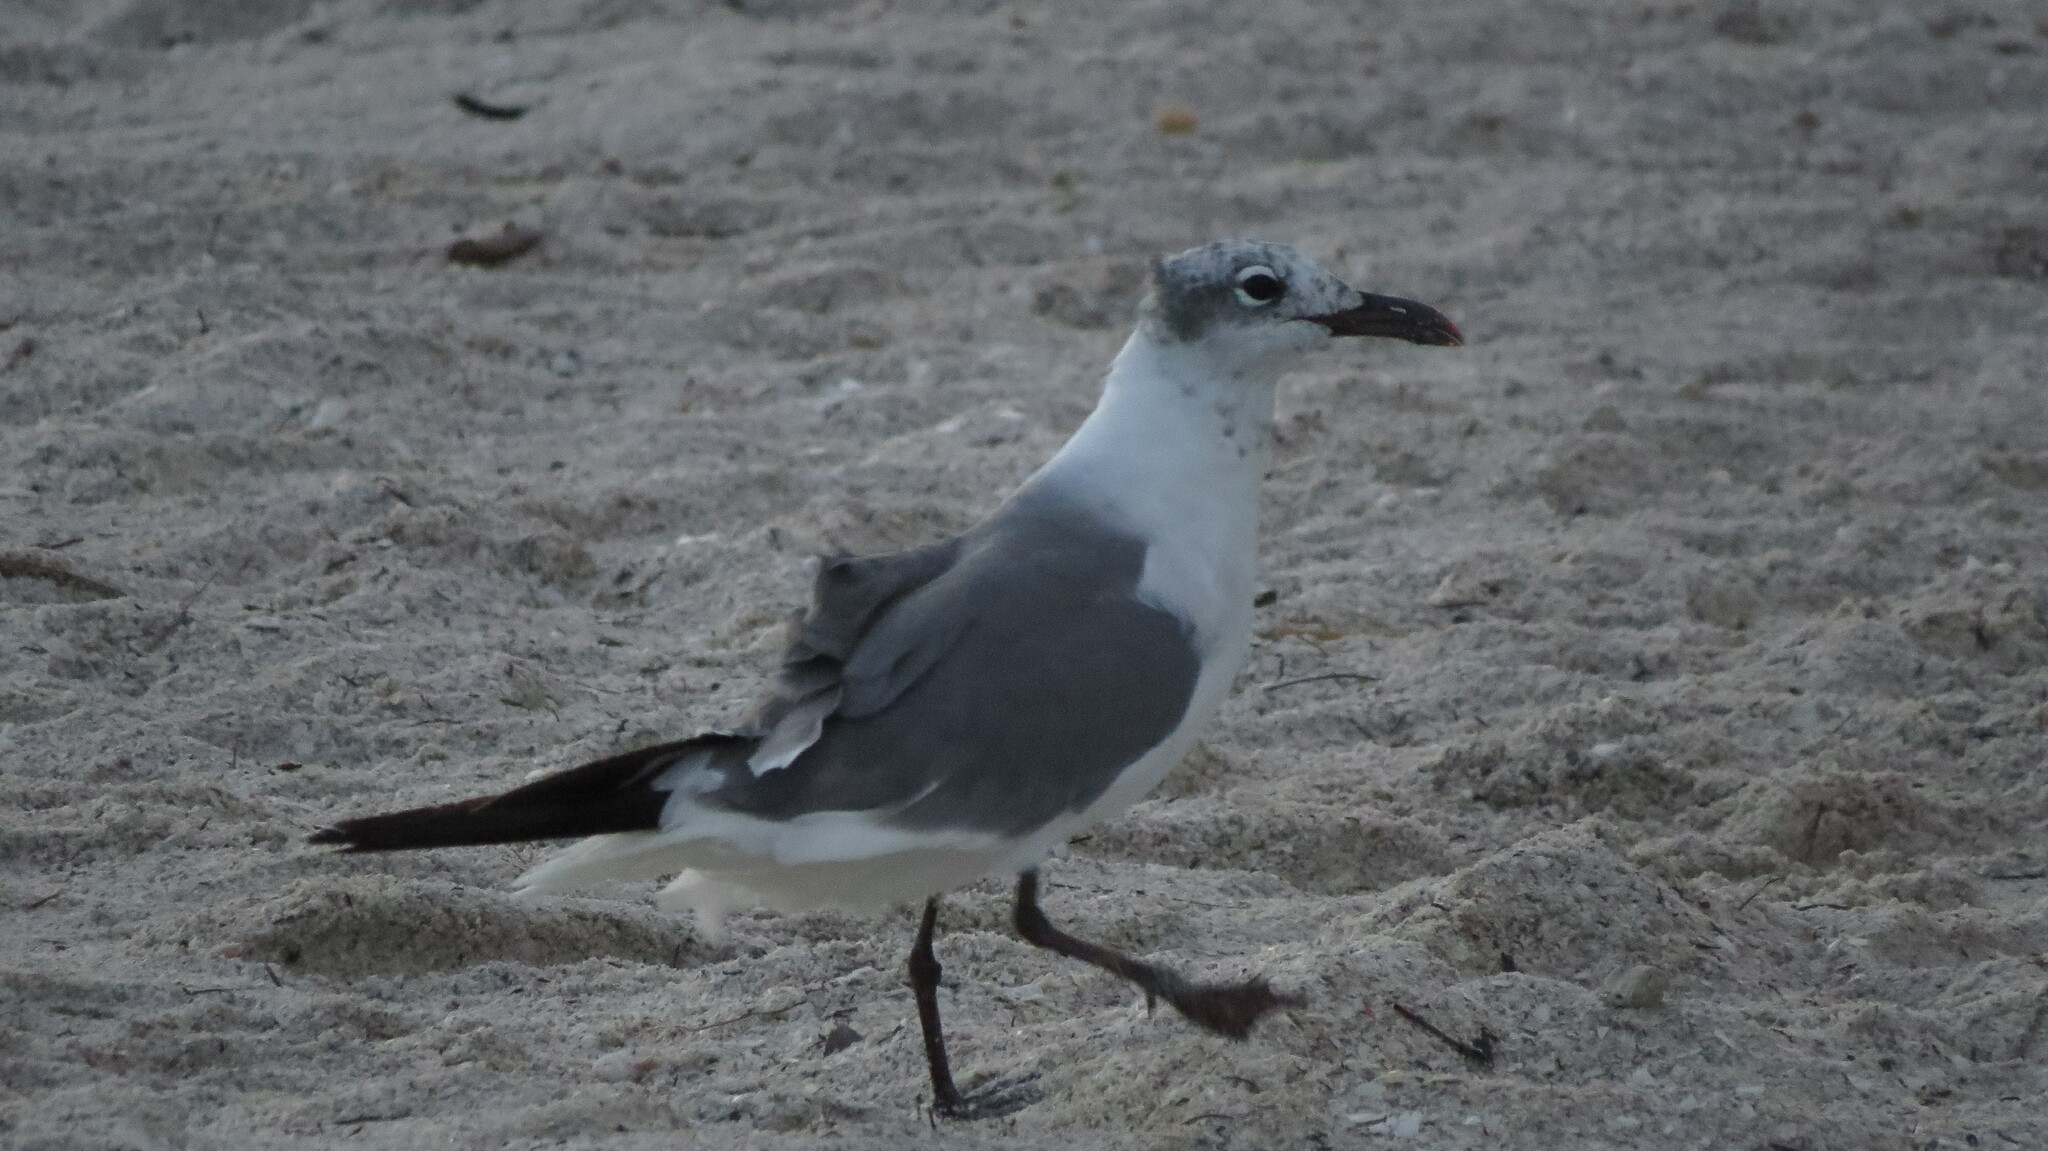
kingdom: Animalia
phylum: Chordata
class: Aves
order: Charadriiformes
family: Laridae
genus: Leucophaeus
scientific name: Leucophaeus atricilla
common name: Laughing gull
